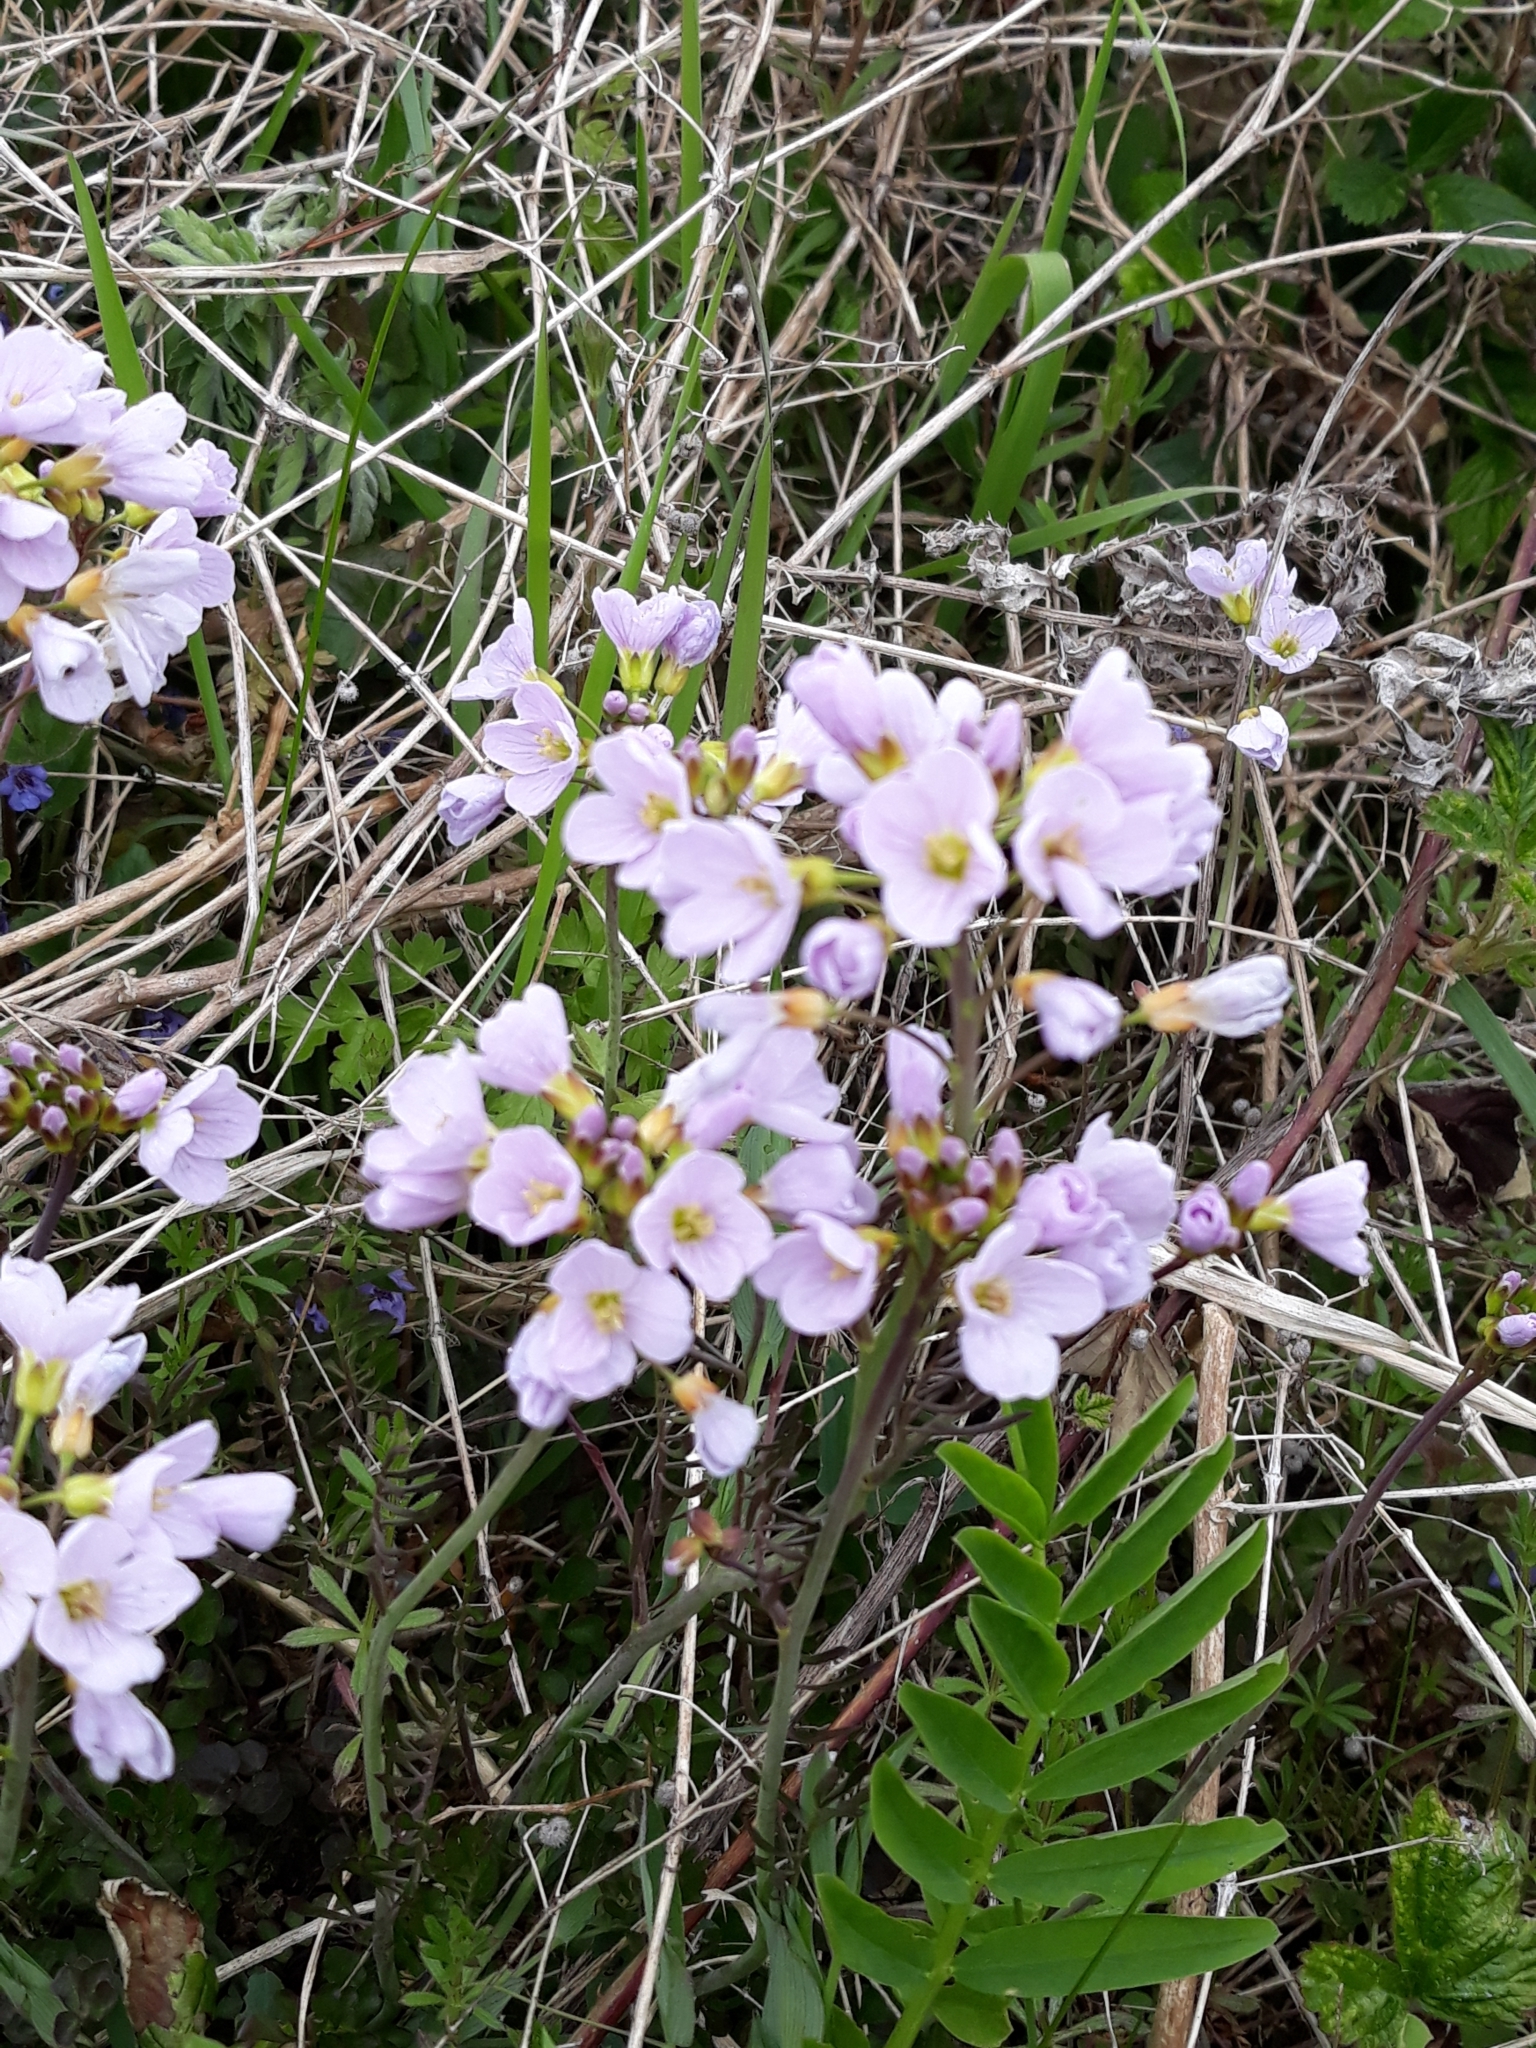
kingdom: Plantae
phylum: Tracheophyta
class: Magnoliopsida
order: Brassicales
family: Brassicaceae
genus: Cardamine
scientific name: Cardamine pratensis
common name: Cuckoo flower
